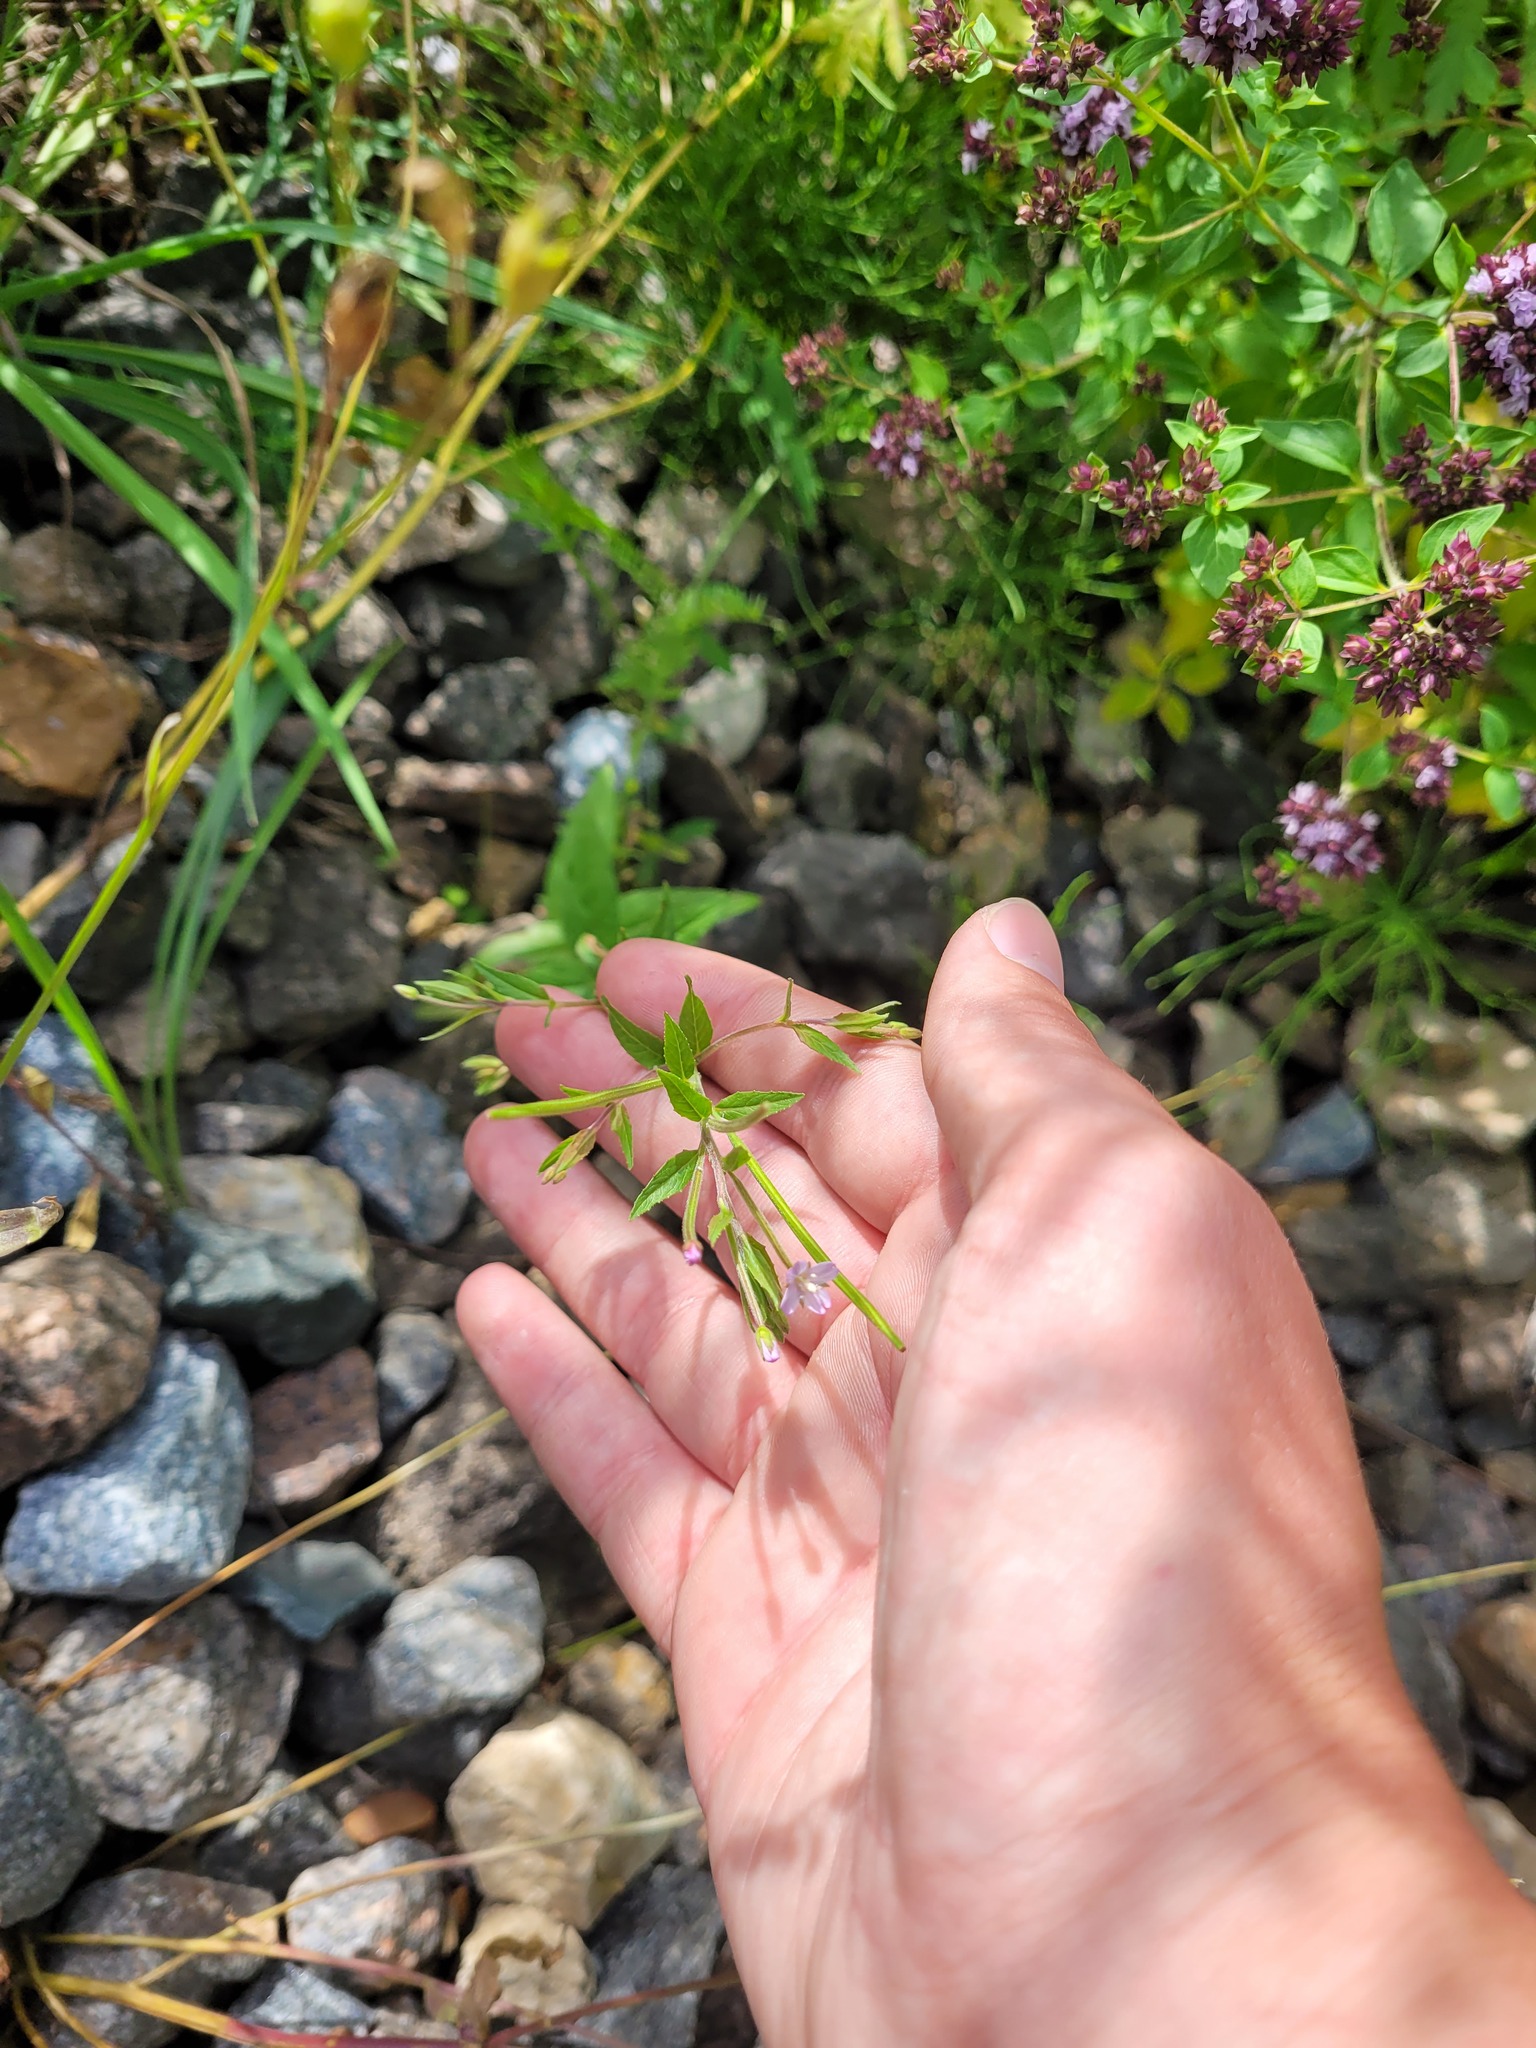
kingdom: Plantae
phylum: Tracheophyta
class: Magnoliopsida
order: Myrtales
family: Onagraceae
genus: Epilobium
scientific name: Epilobium ciliatum
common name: American willowherb
